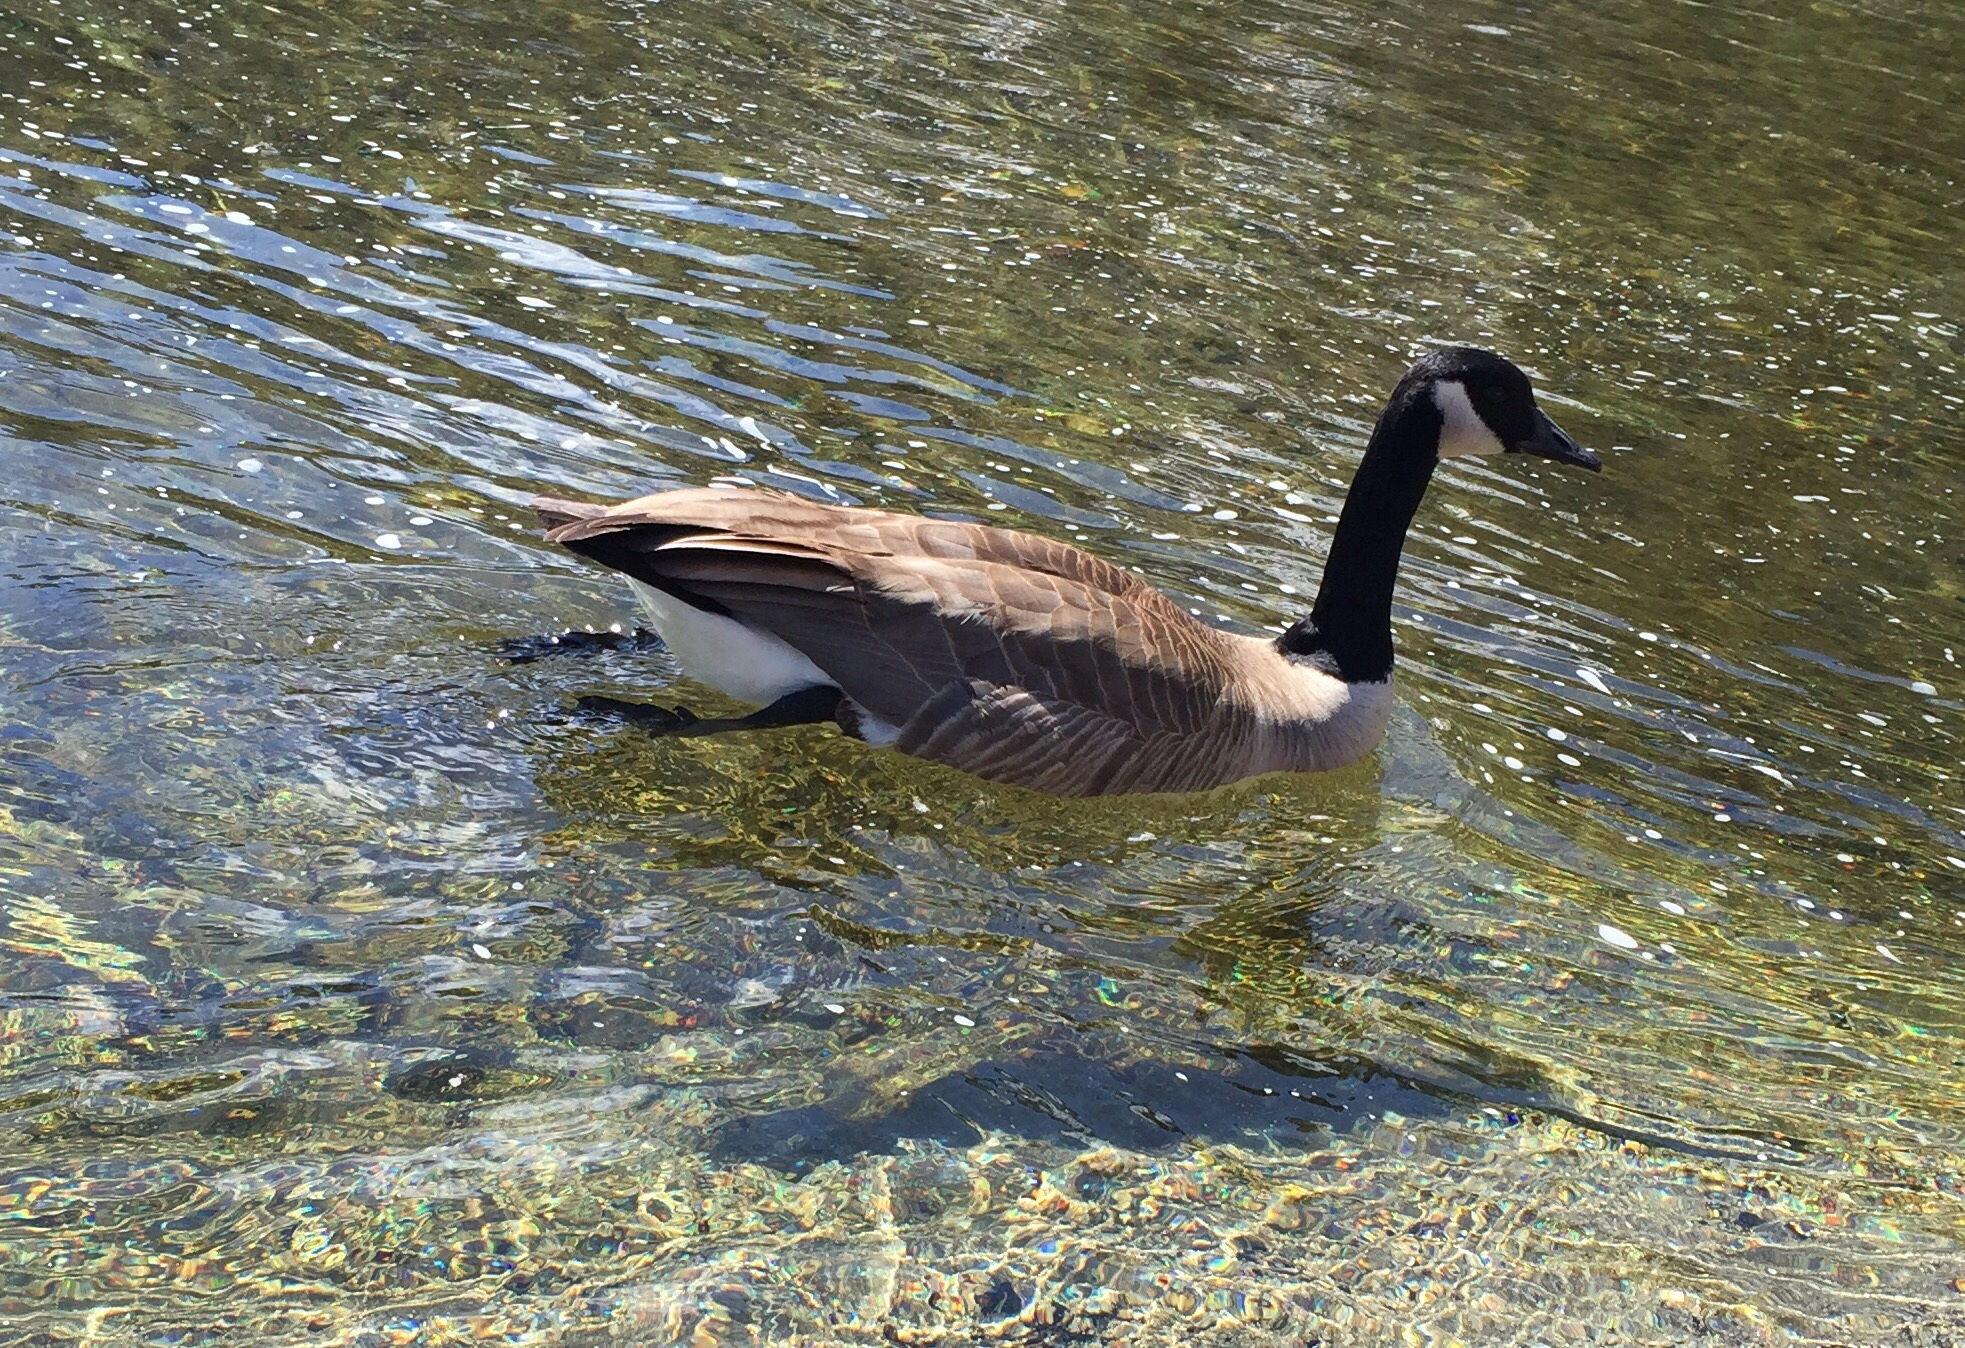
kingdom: Animalia
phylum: Chordata
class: Aves
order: Anseriformes
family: Anatidae
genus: Branta
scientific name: Branta canadensis
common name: Canada goose
